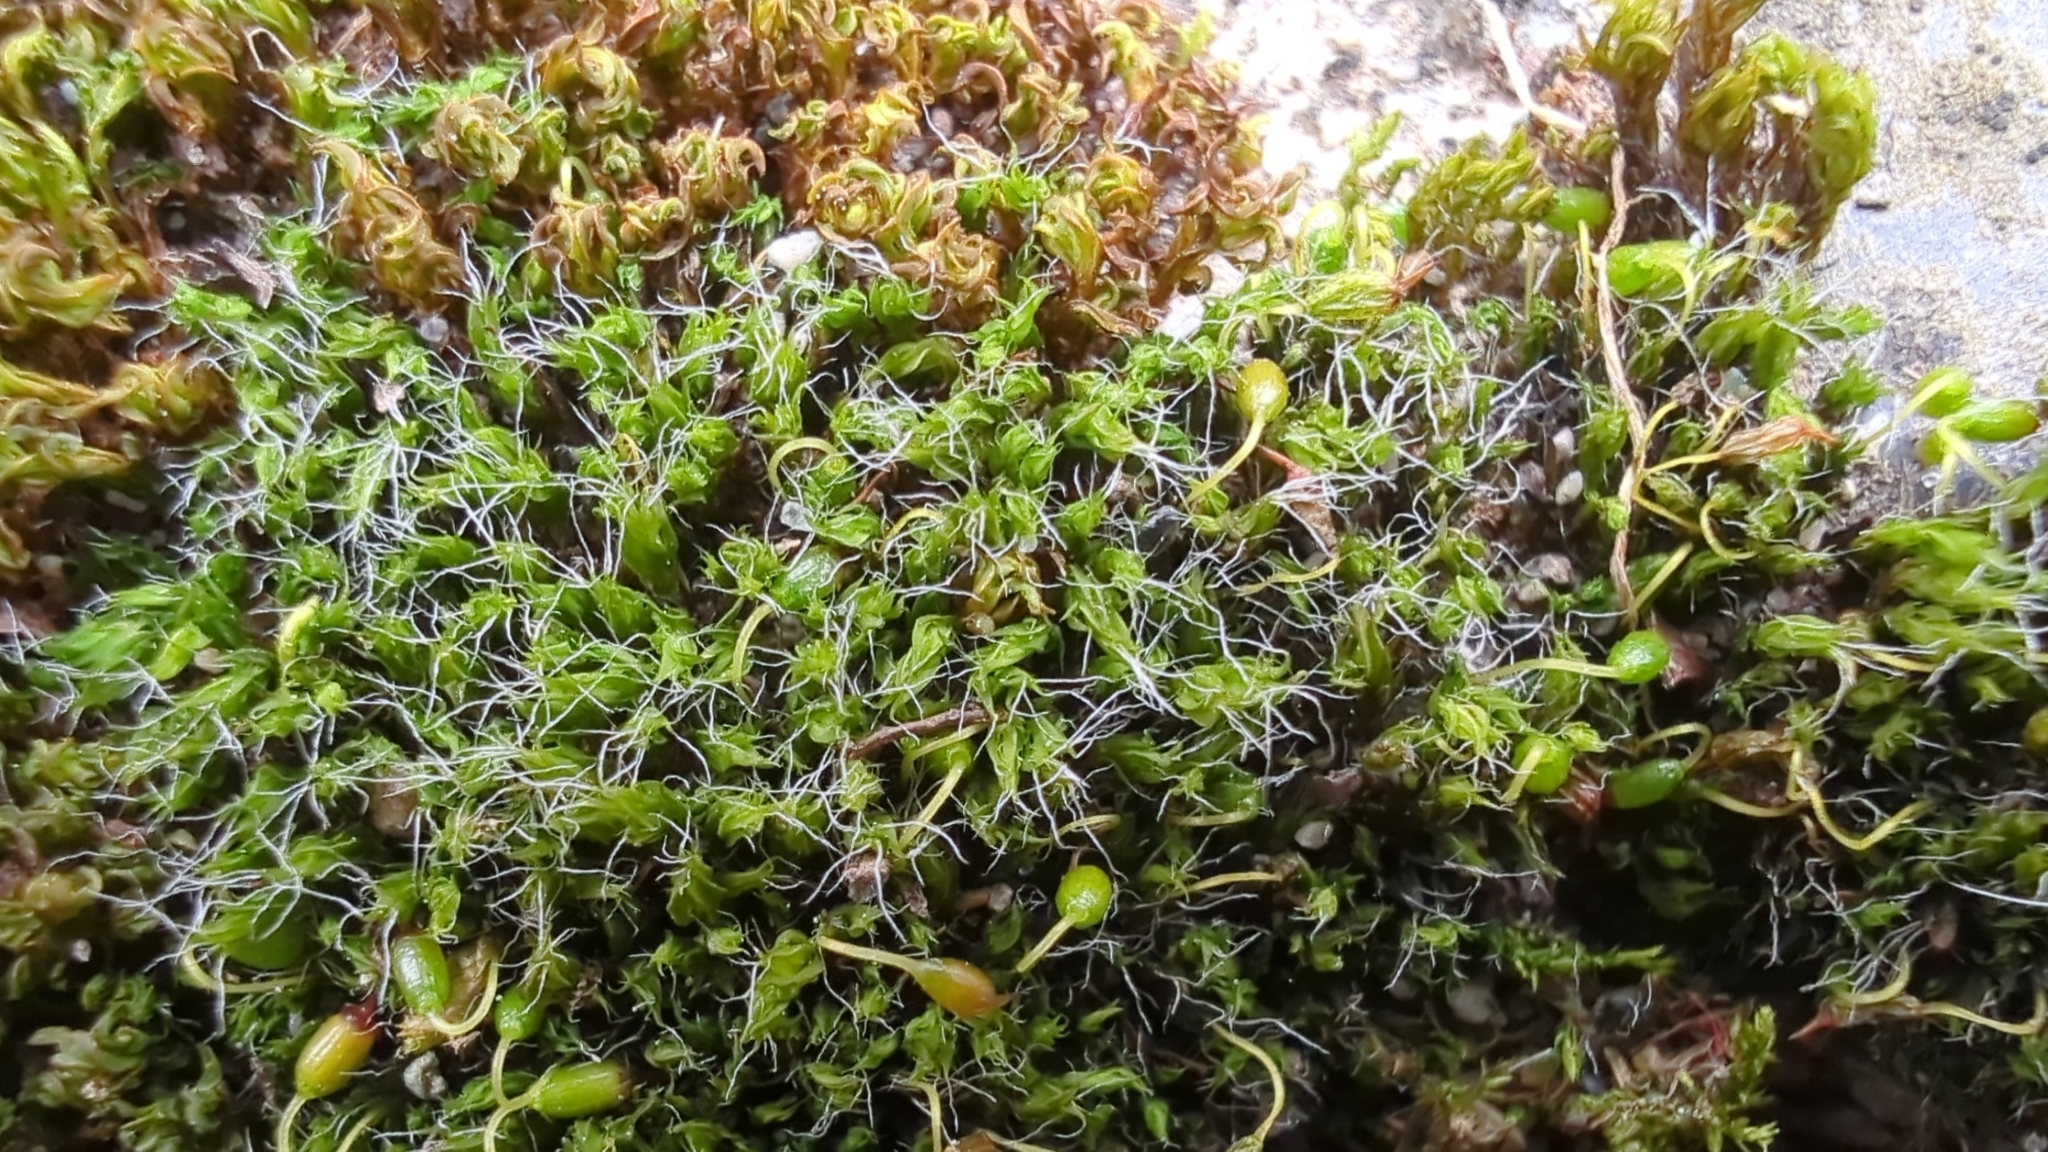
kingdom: Plantae
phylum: Bryophyta
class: Bryopsida
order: Grimmiales
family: Grimmiaceae
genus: Grimmia
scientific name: Grimmia pulvinata
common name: Grey-cushioned grimmia
